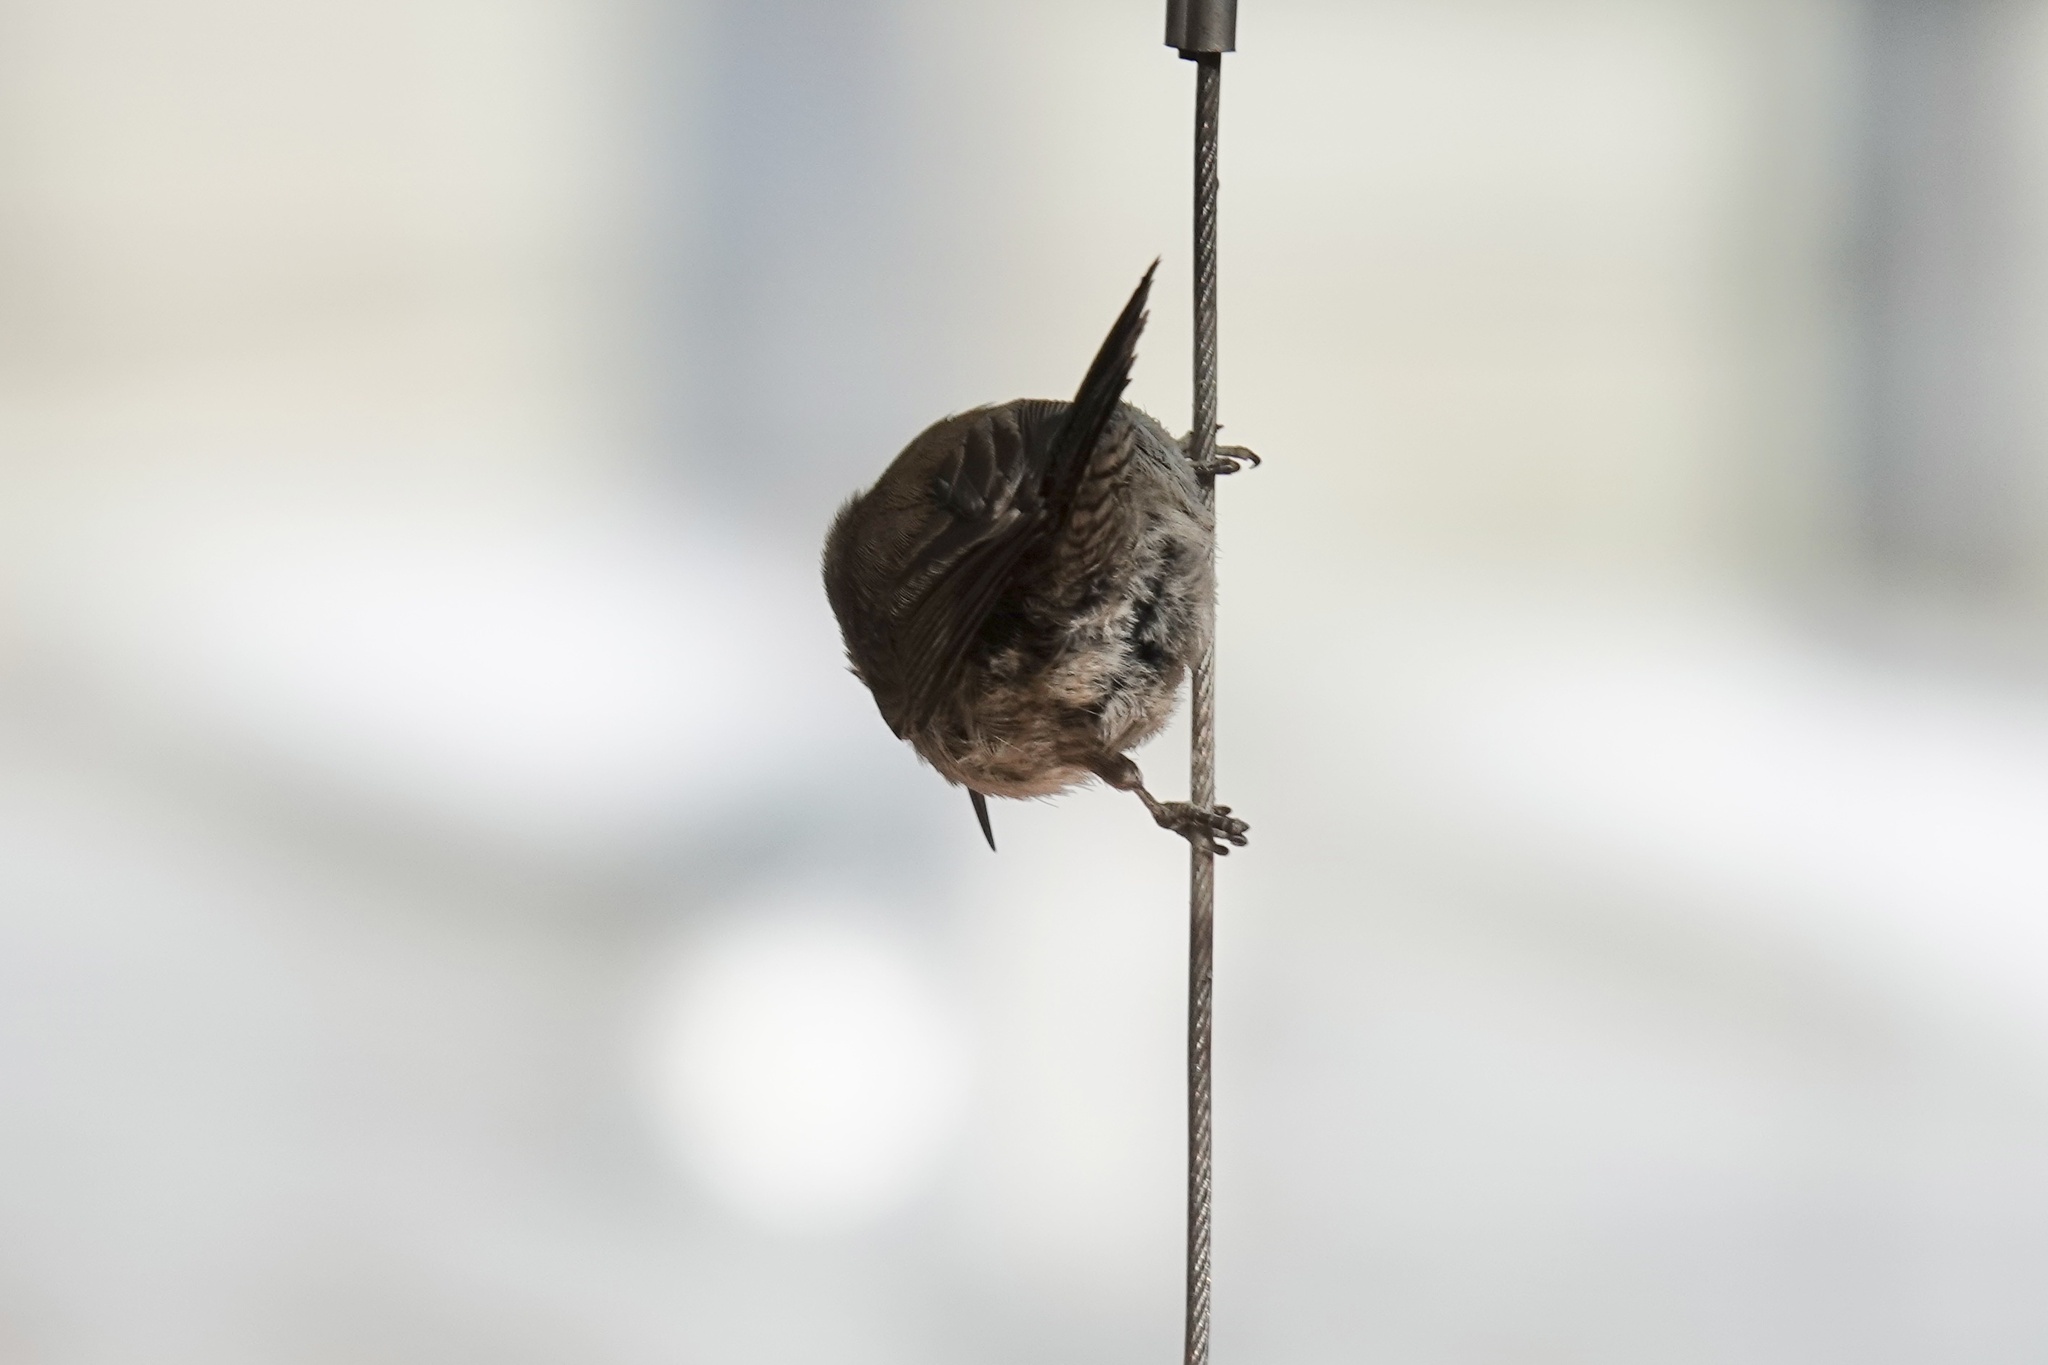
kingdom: Animalia
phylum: Chordata
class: Aves
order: Passeriformes
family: Troglodytidae
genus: Thryomanes
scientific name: Thryomanes bewickii
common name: Bewick's wren
